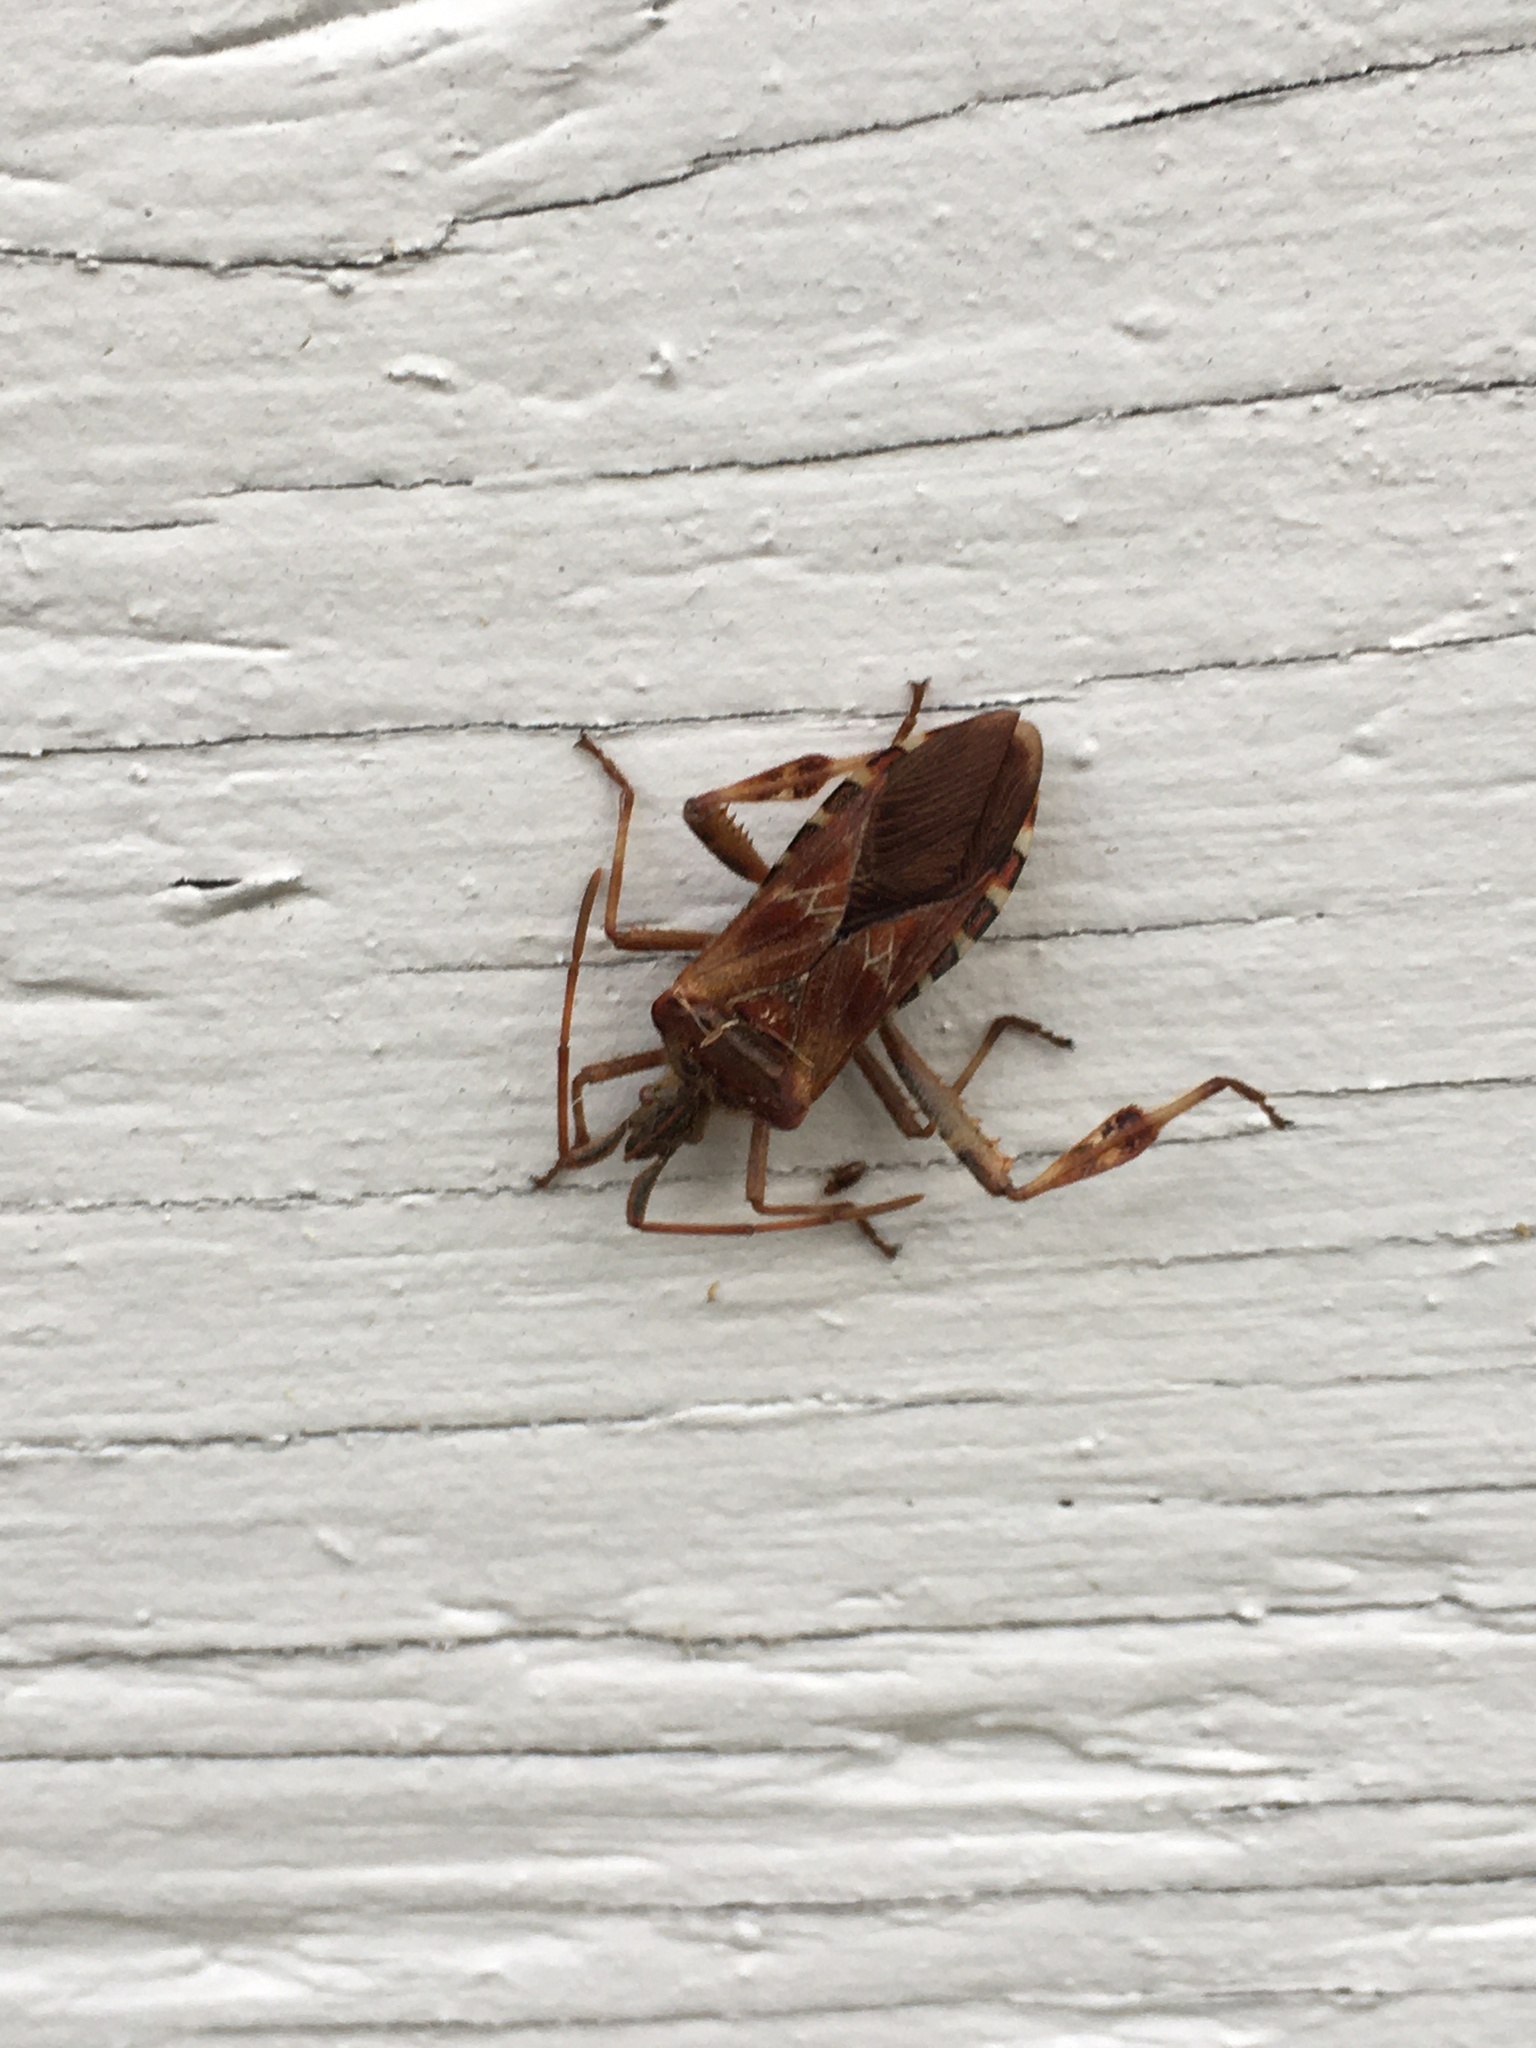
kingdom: Animalia
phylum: Arthropoda
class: Insecta
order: Hemiptera
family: Coreidae
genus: Leptoglossus
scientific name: Leptoglossus occidentalis
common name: Western conifer-seed bug
